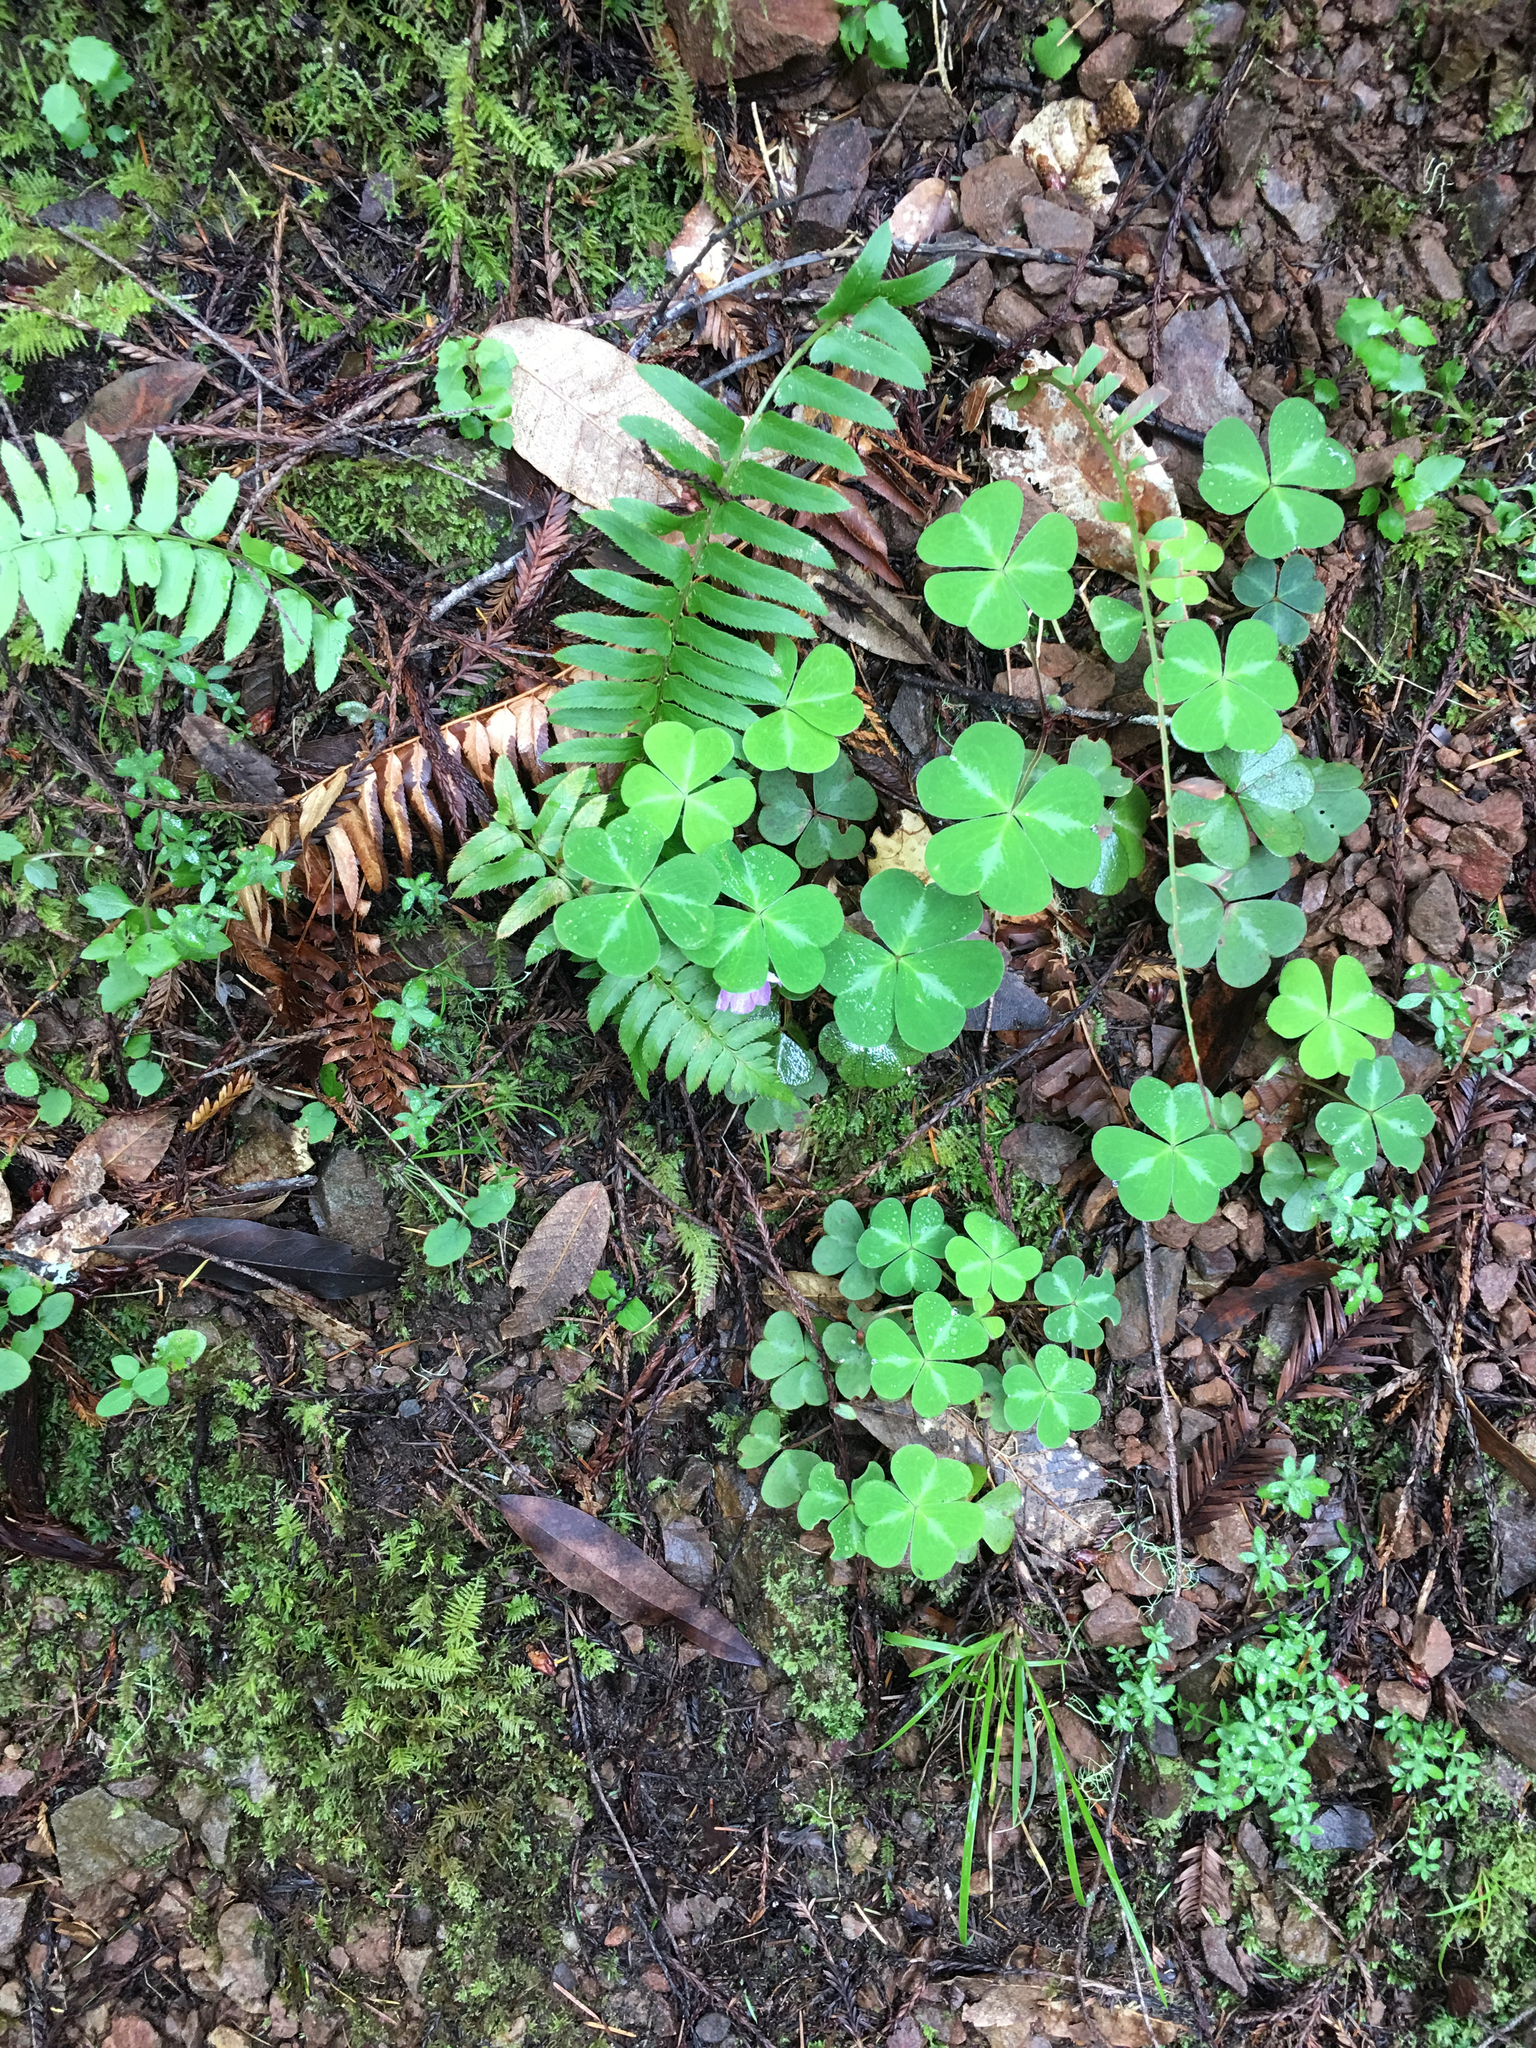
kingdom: Plantae
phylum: Tracheophyta
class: Magnoliopsida
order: Oxalidales
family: Oxalidaceae
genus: Oxalis
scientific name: Oxalis oregana
